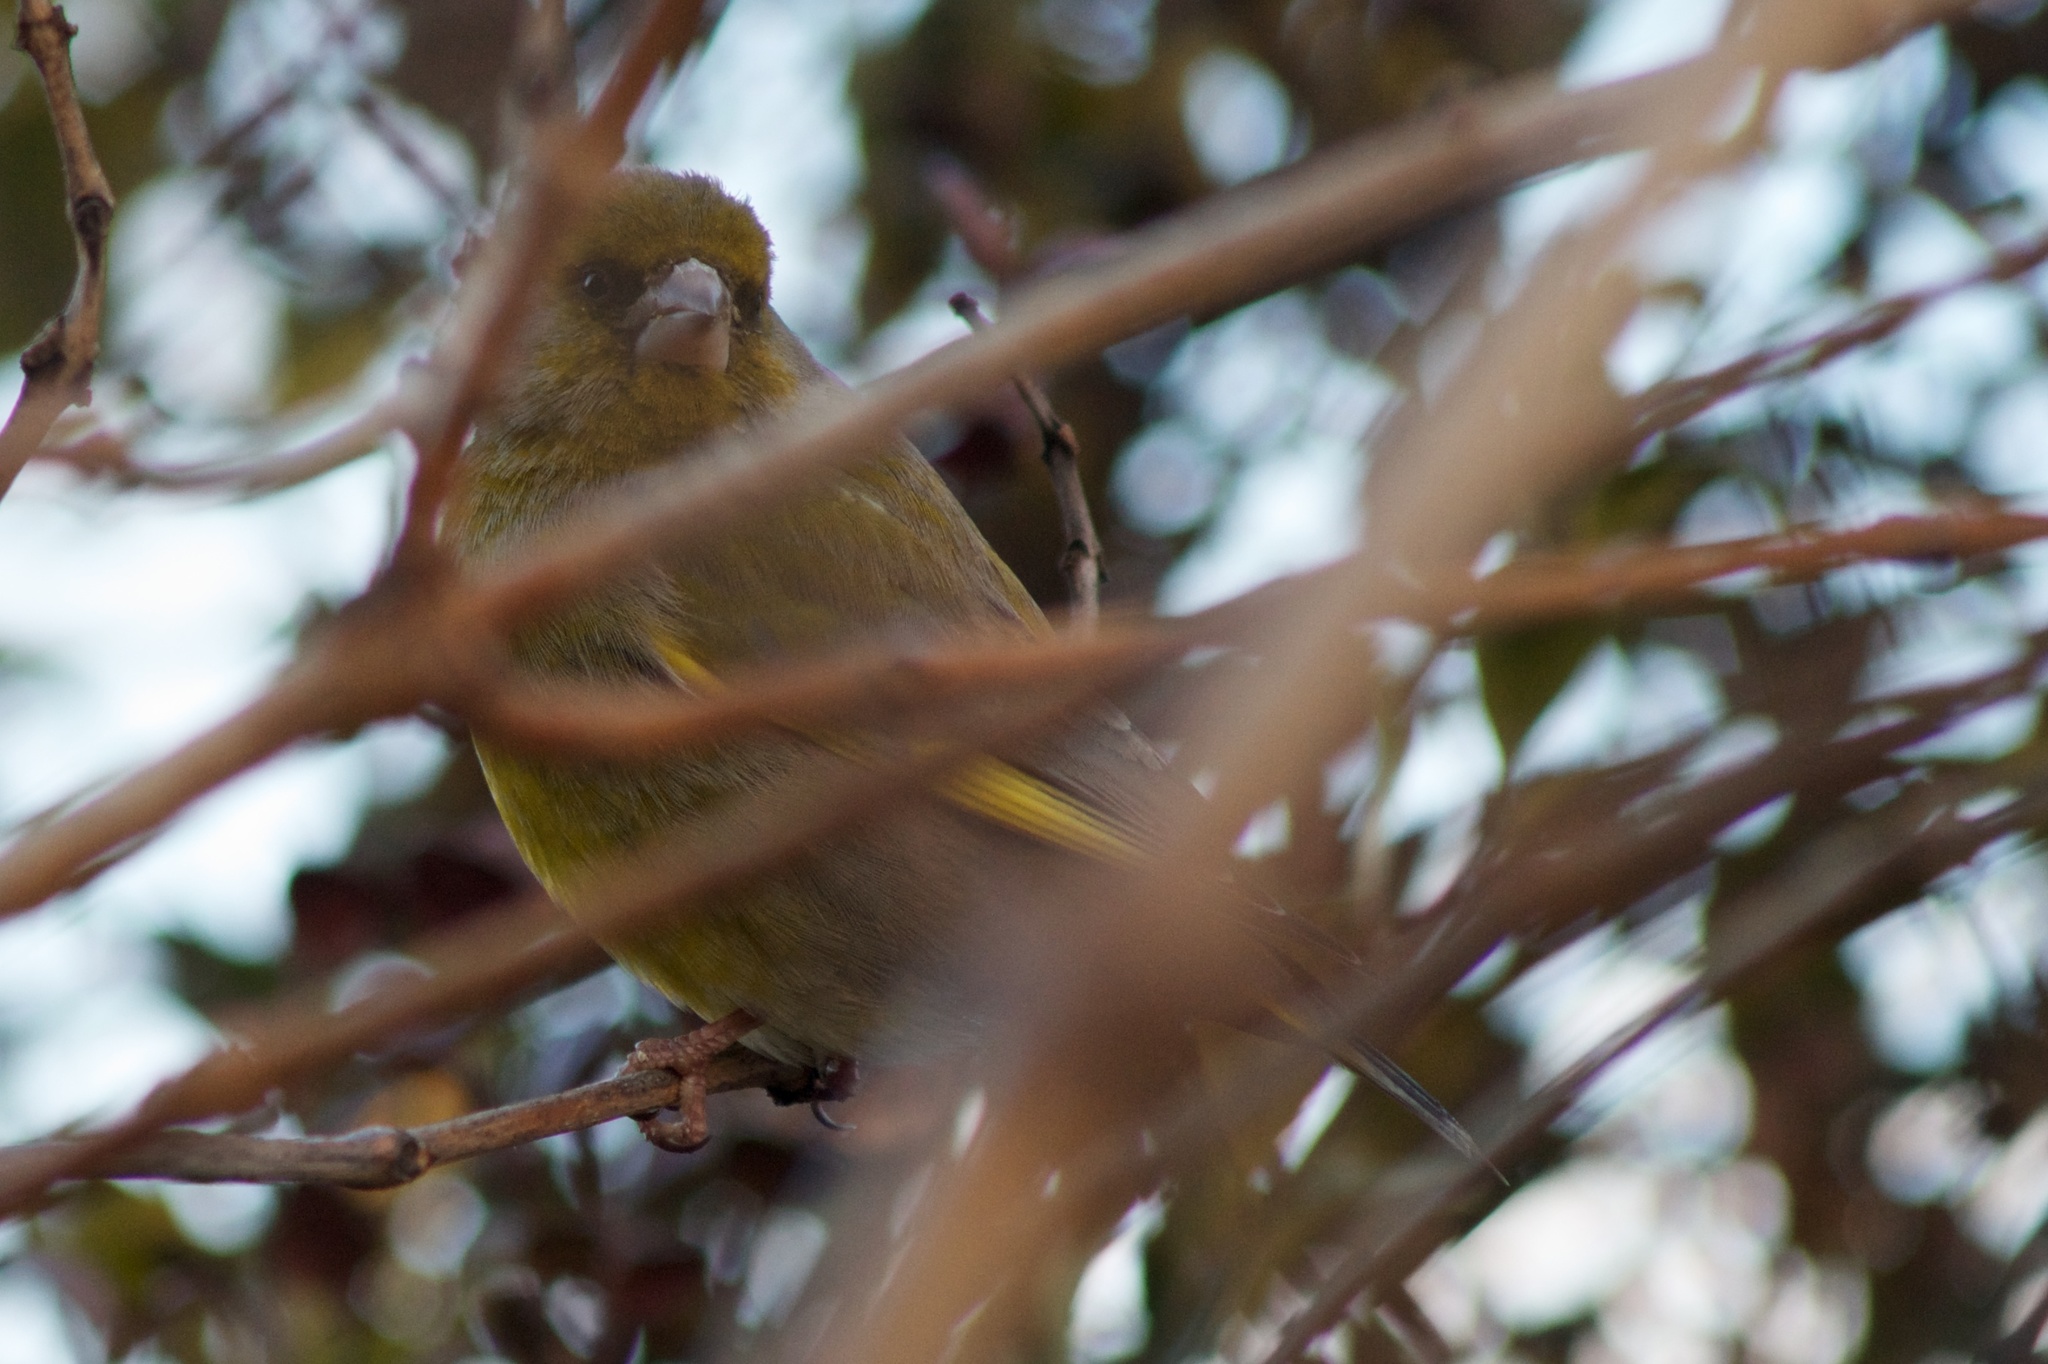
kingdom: Plantae
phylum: Tracheophyta
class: Liliopsida
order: Poales
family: Poaceae
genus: Chloris
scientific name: Chloris chloris
